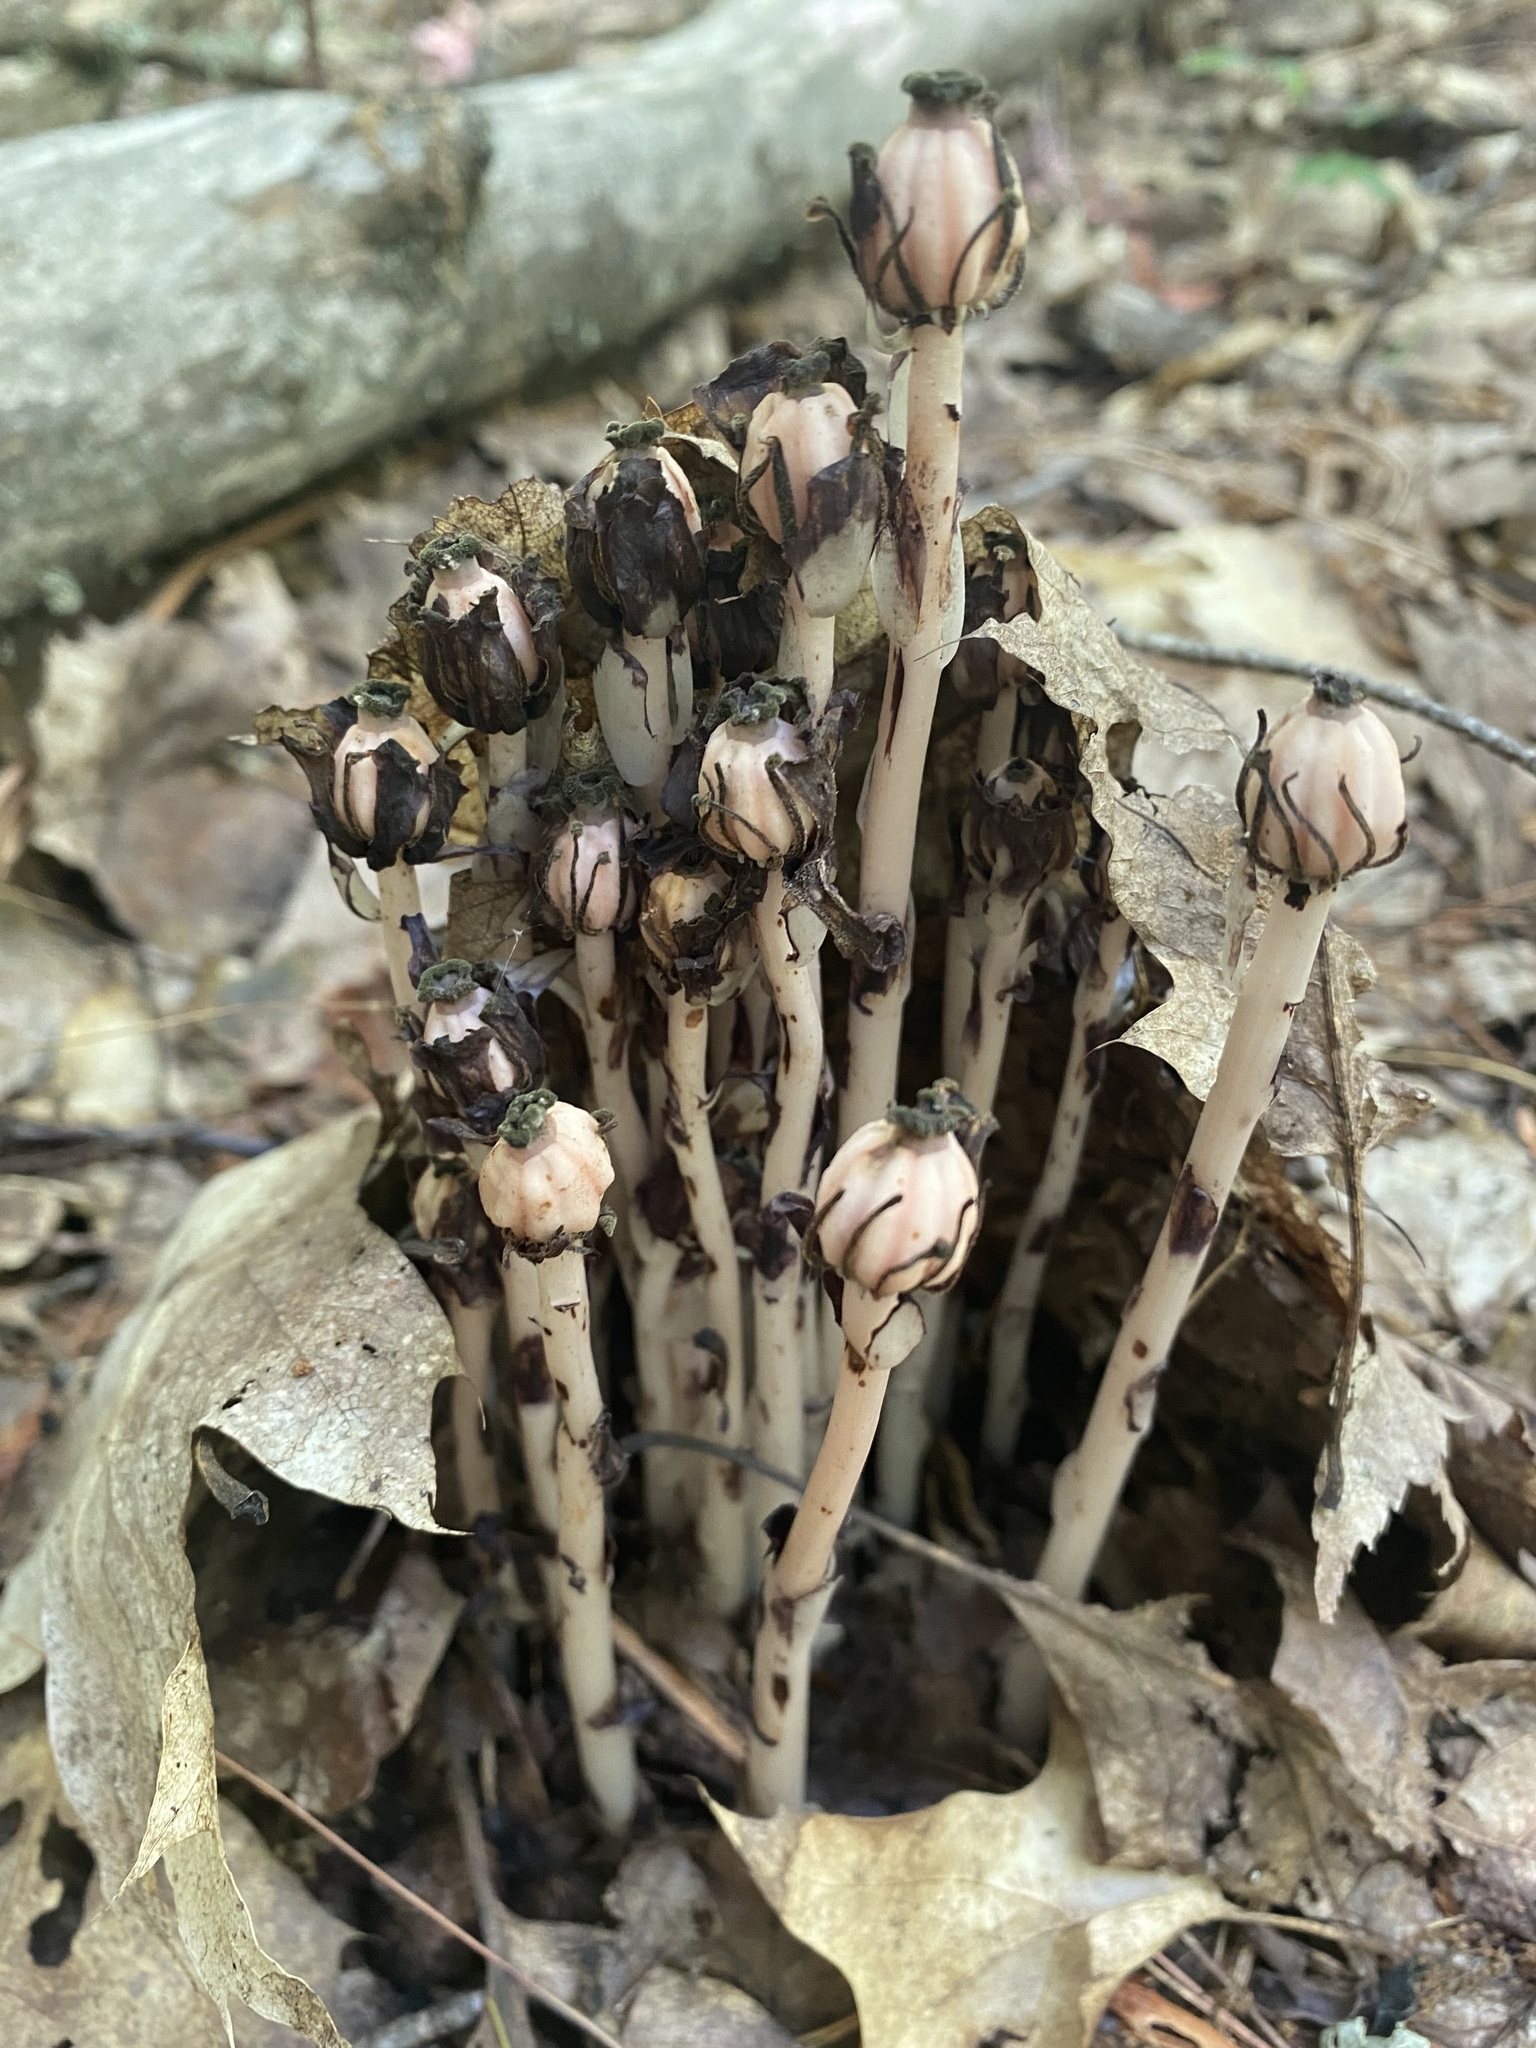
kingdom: Plantae
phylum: Tracheophyta
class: Magnoliopsida
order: Ericales
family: Ericaceae
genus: Monotropa
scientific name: Monotropa uniflora
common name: Convulsion root
